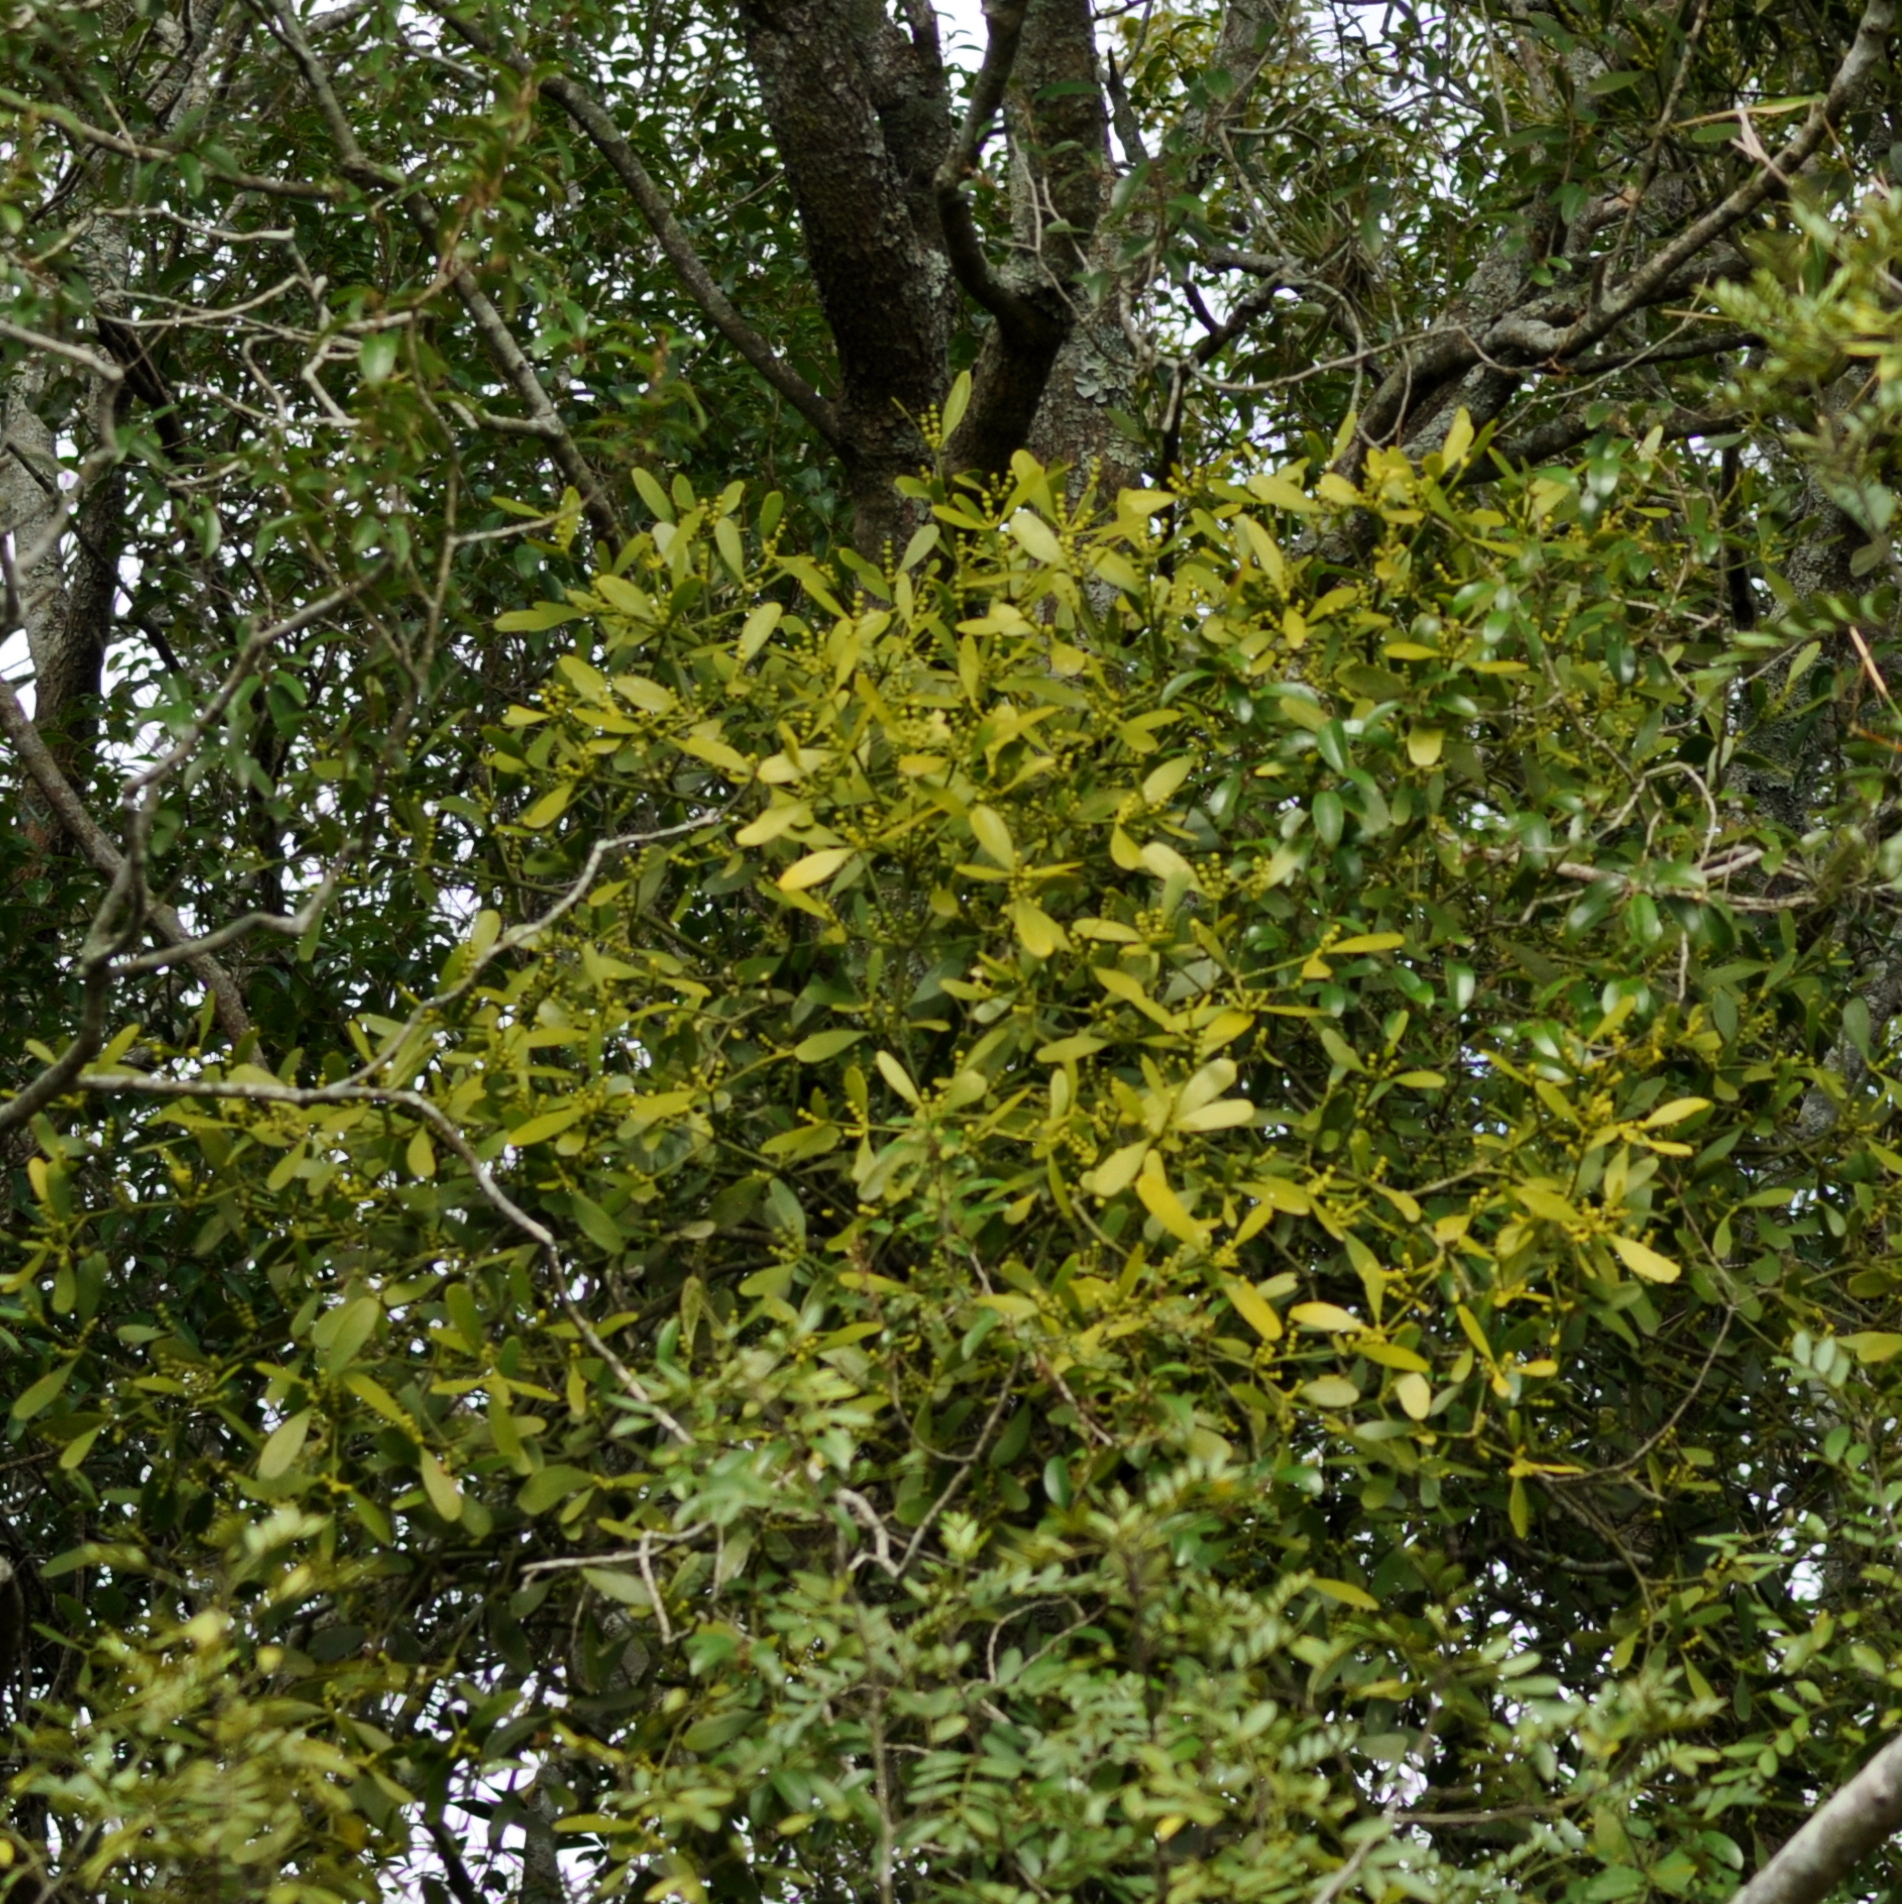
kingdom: Plantae
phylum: Tracheophyta
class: Magnoliopsida
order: Santalales
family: Viscaceae
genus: Phoradendron
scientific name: Phoradendron holoxanthum
